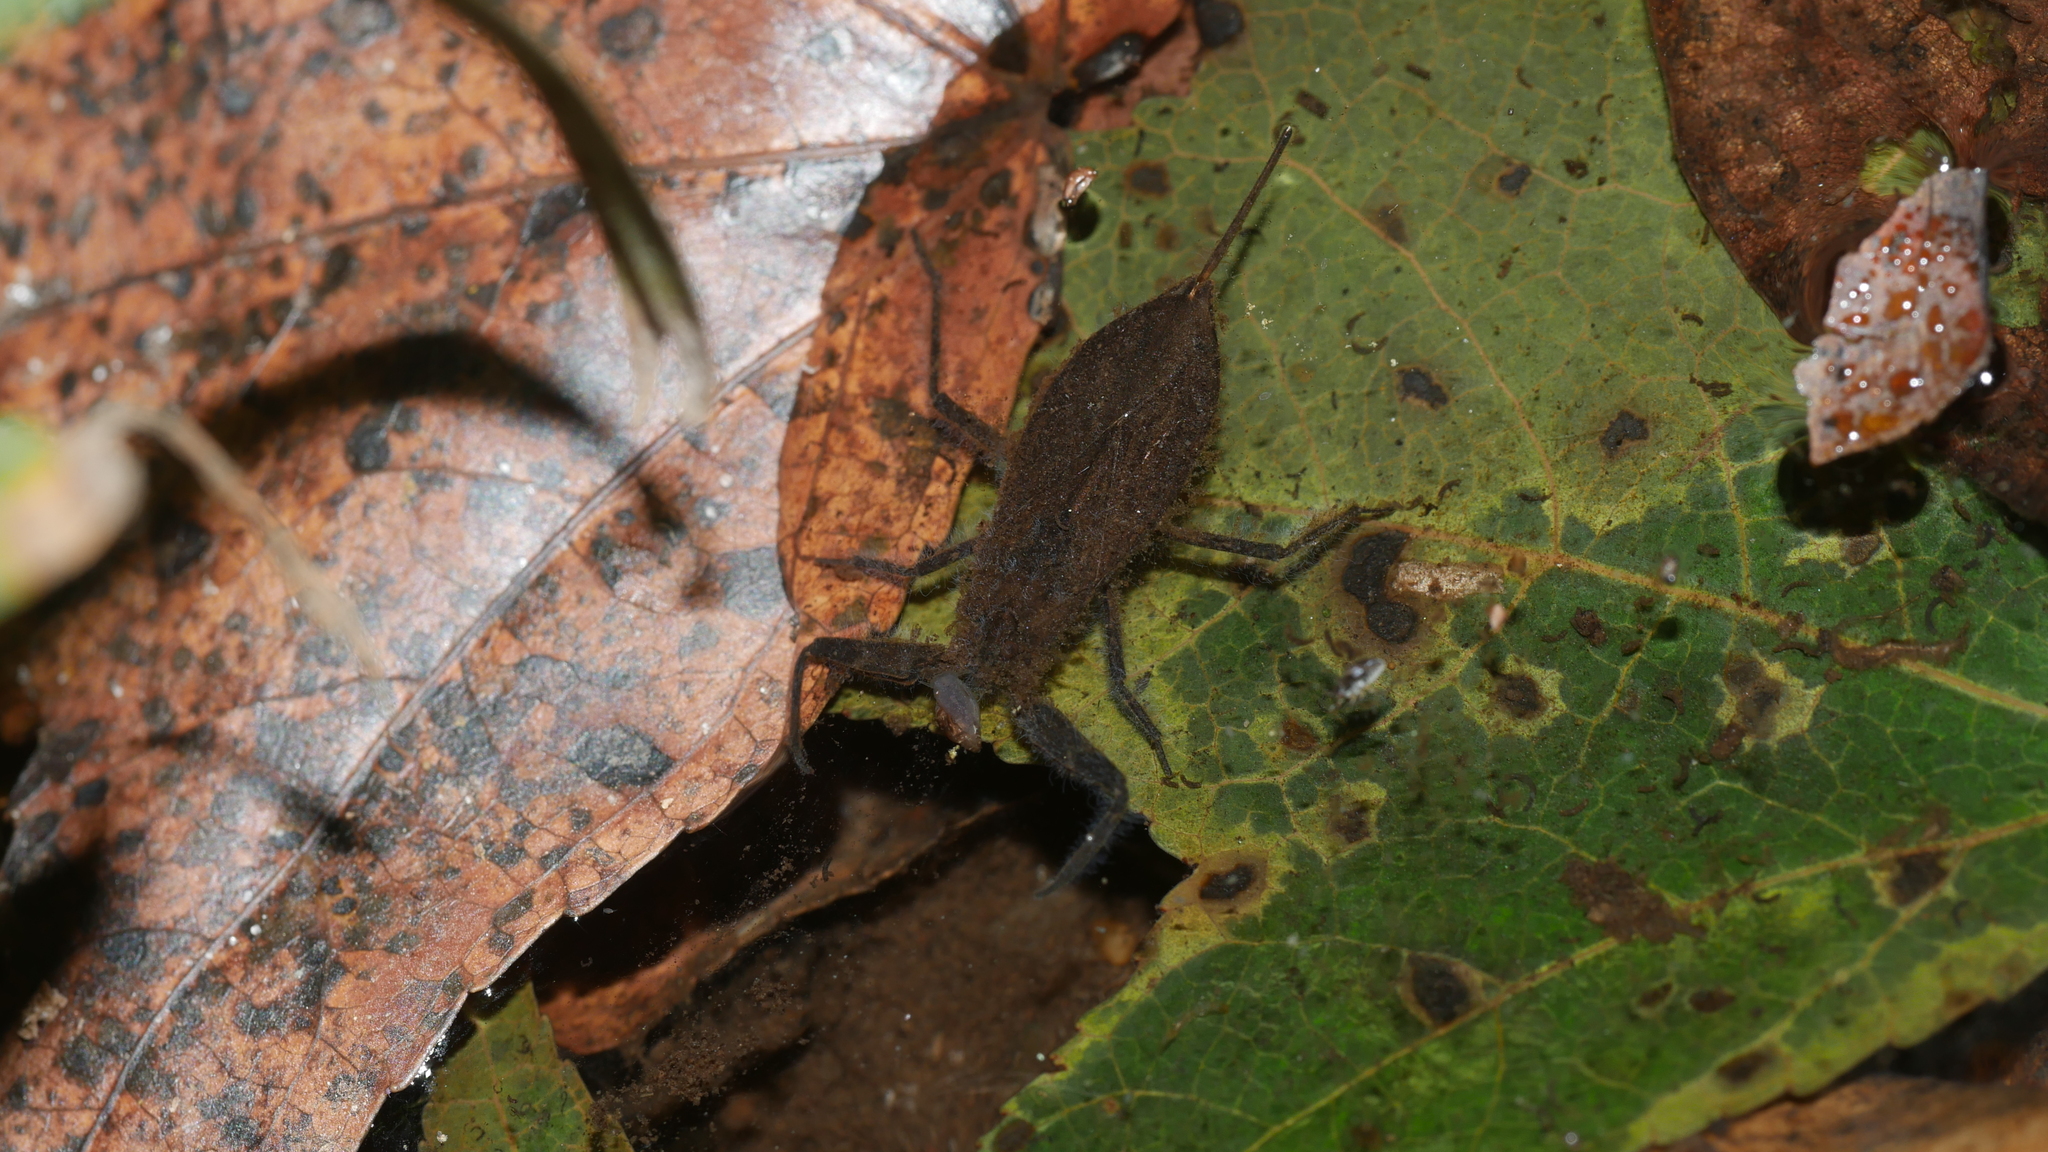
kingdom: Animalia
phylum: Arthropoda
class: Insecta
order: Hemiptera
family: Nepidae
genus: Nepa
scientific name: Nepa apiculata
